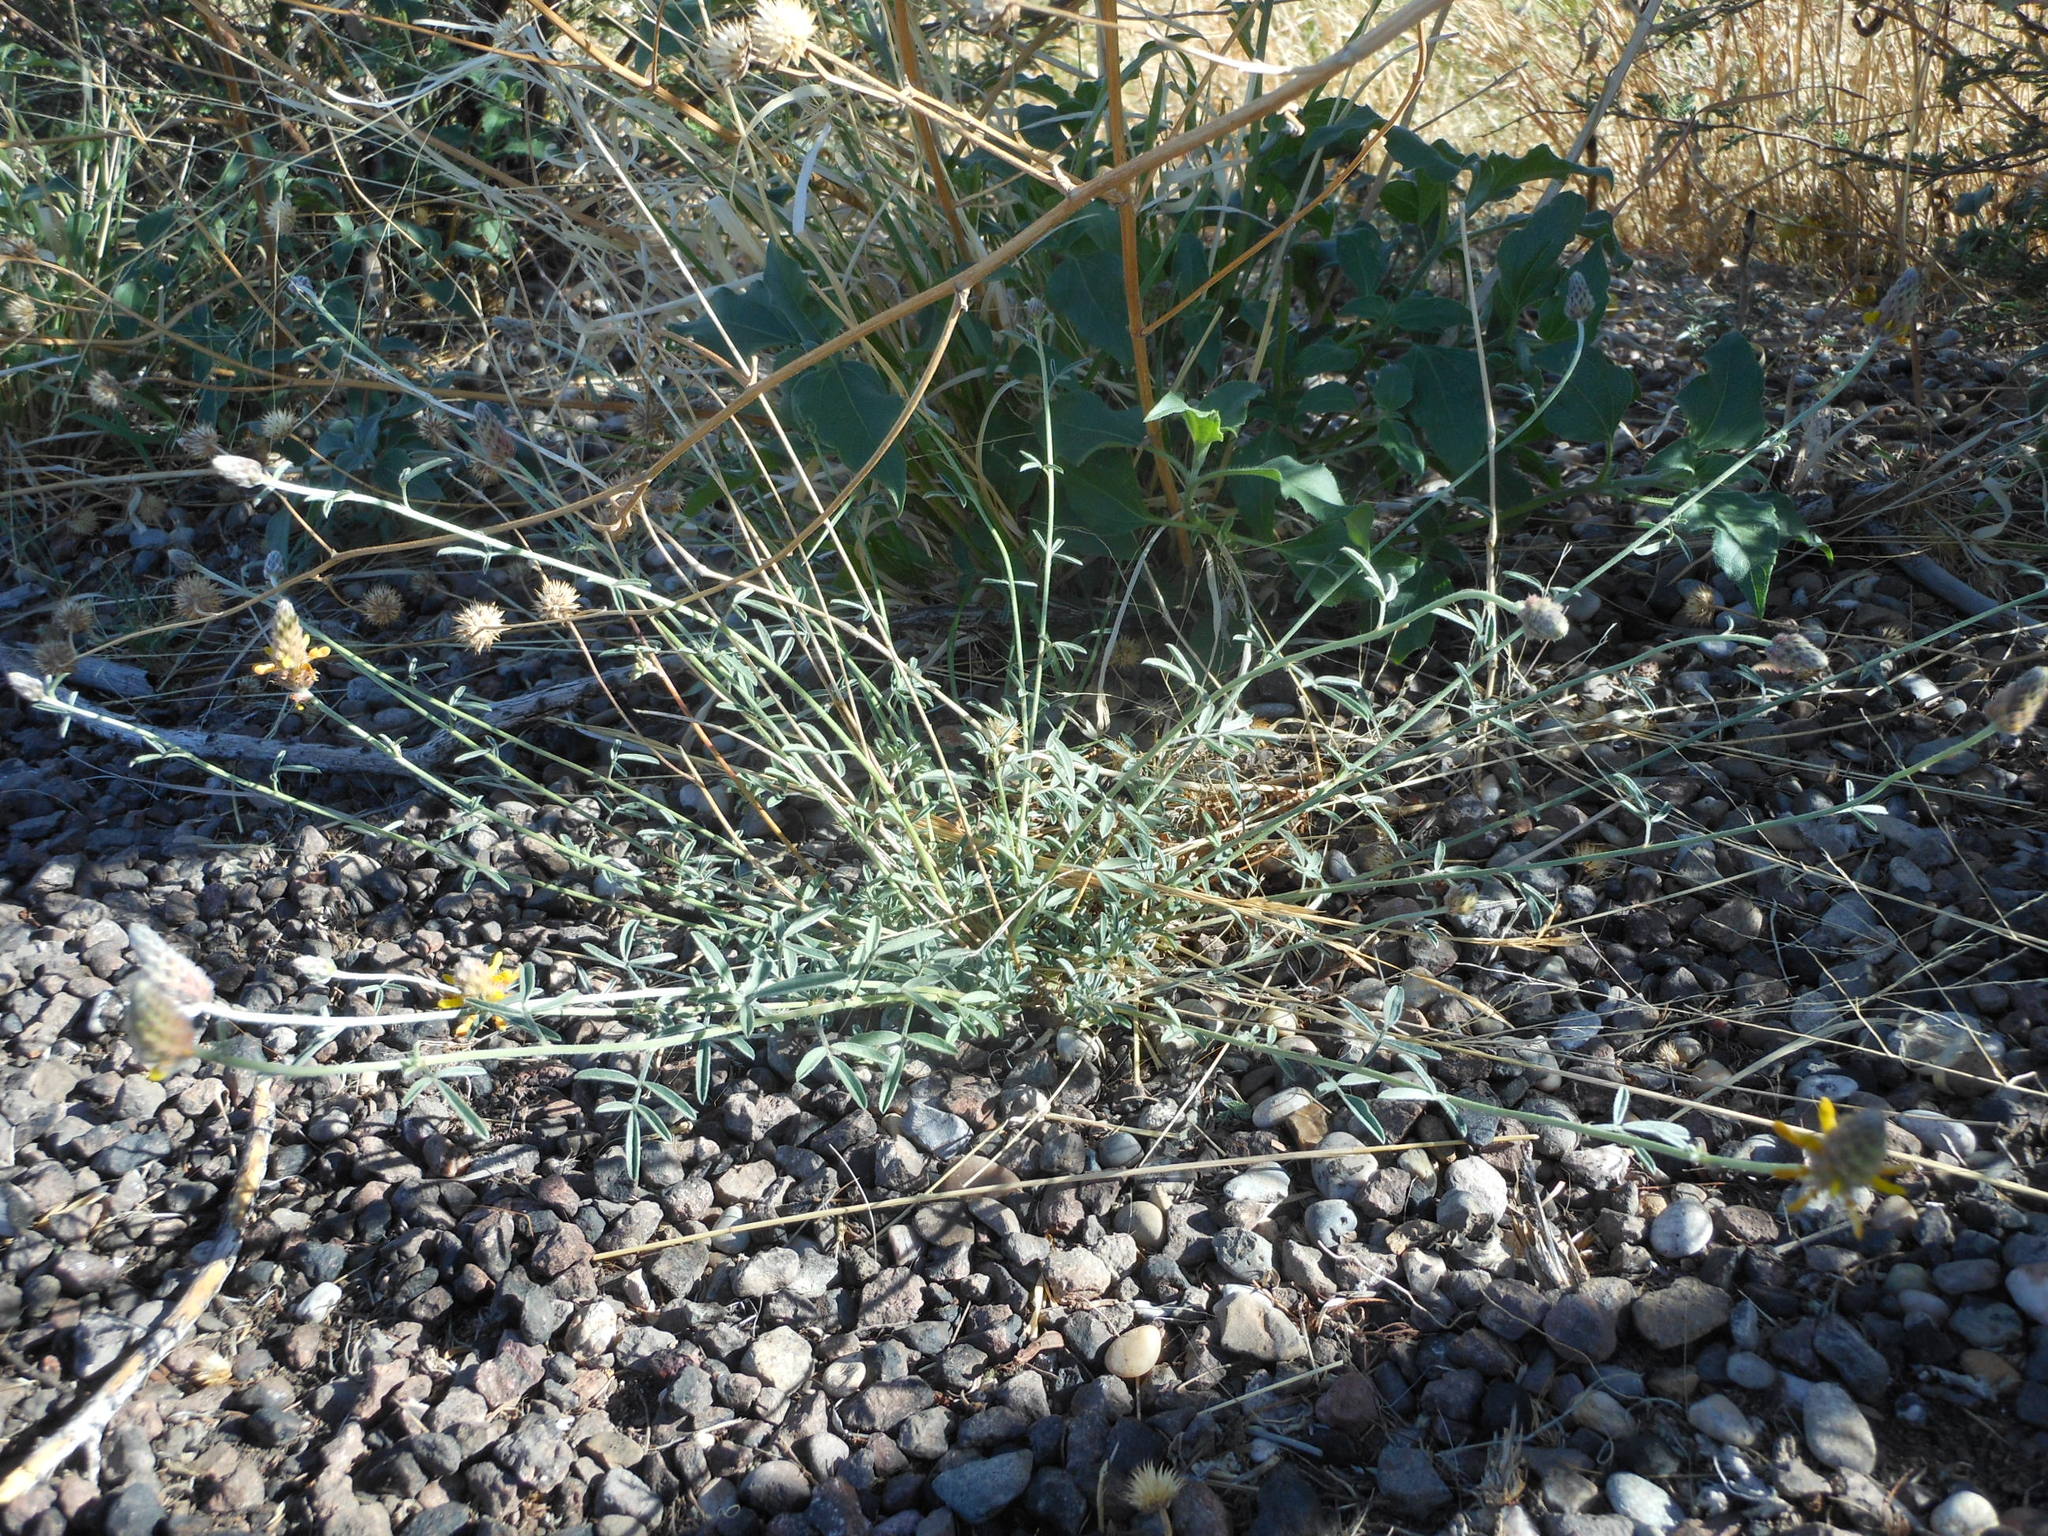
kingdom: Plantae
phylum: Tracheophyta
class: Magnoliopsida
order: Fabales
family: Fabaceae
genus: Dalea
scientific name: Dalea nana
